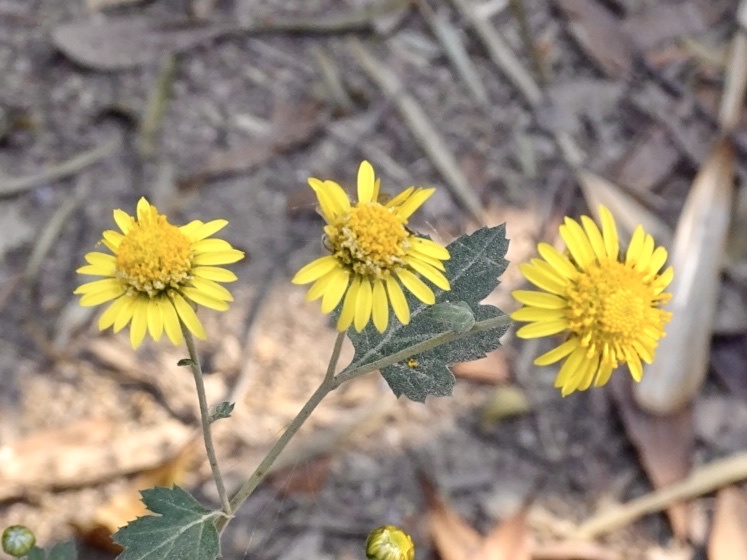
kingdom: Plantae
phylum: Tracheophyta
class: Magnoliopsida
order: Asterales
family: Asteraceae
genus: Chrysanthemum
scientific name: Chrysanthemum indicum
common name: Indian chrysanthemum
